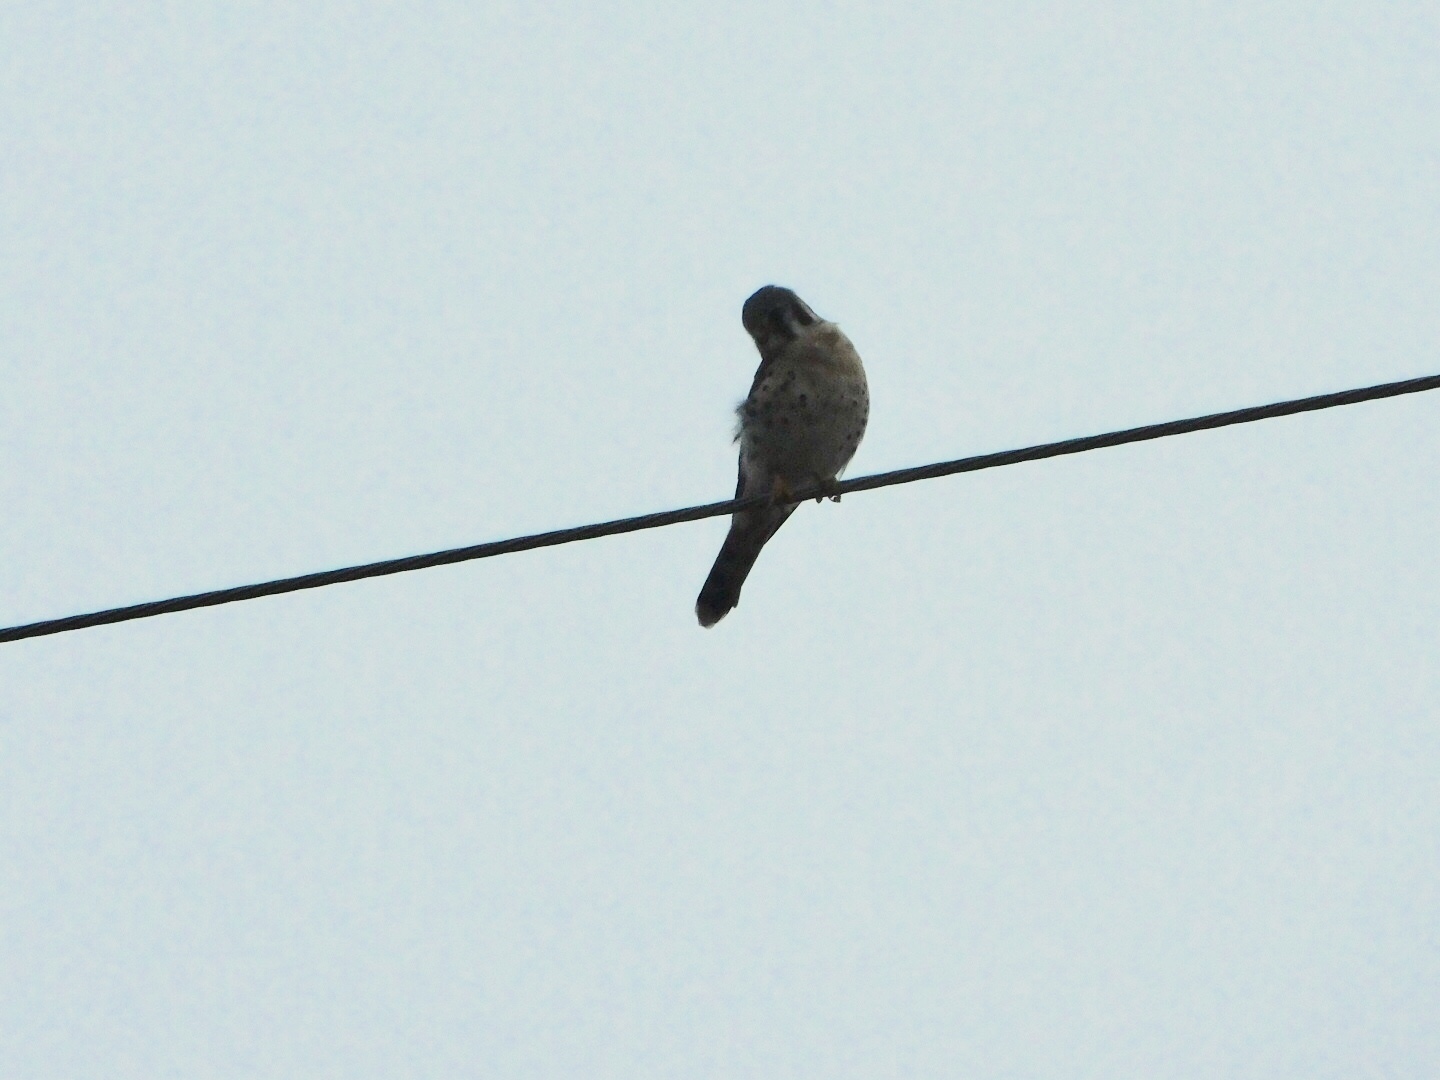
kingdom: Animalia
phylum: Chordata
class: Aves
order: Falconiformes
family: Falconidae
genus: Falco
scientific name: Falco sparverius
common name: American kestrel
